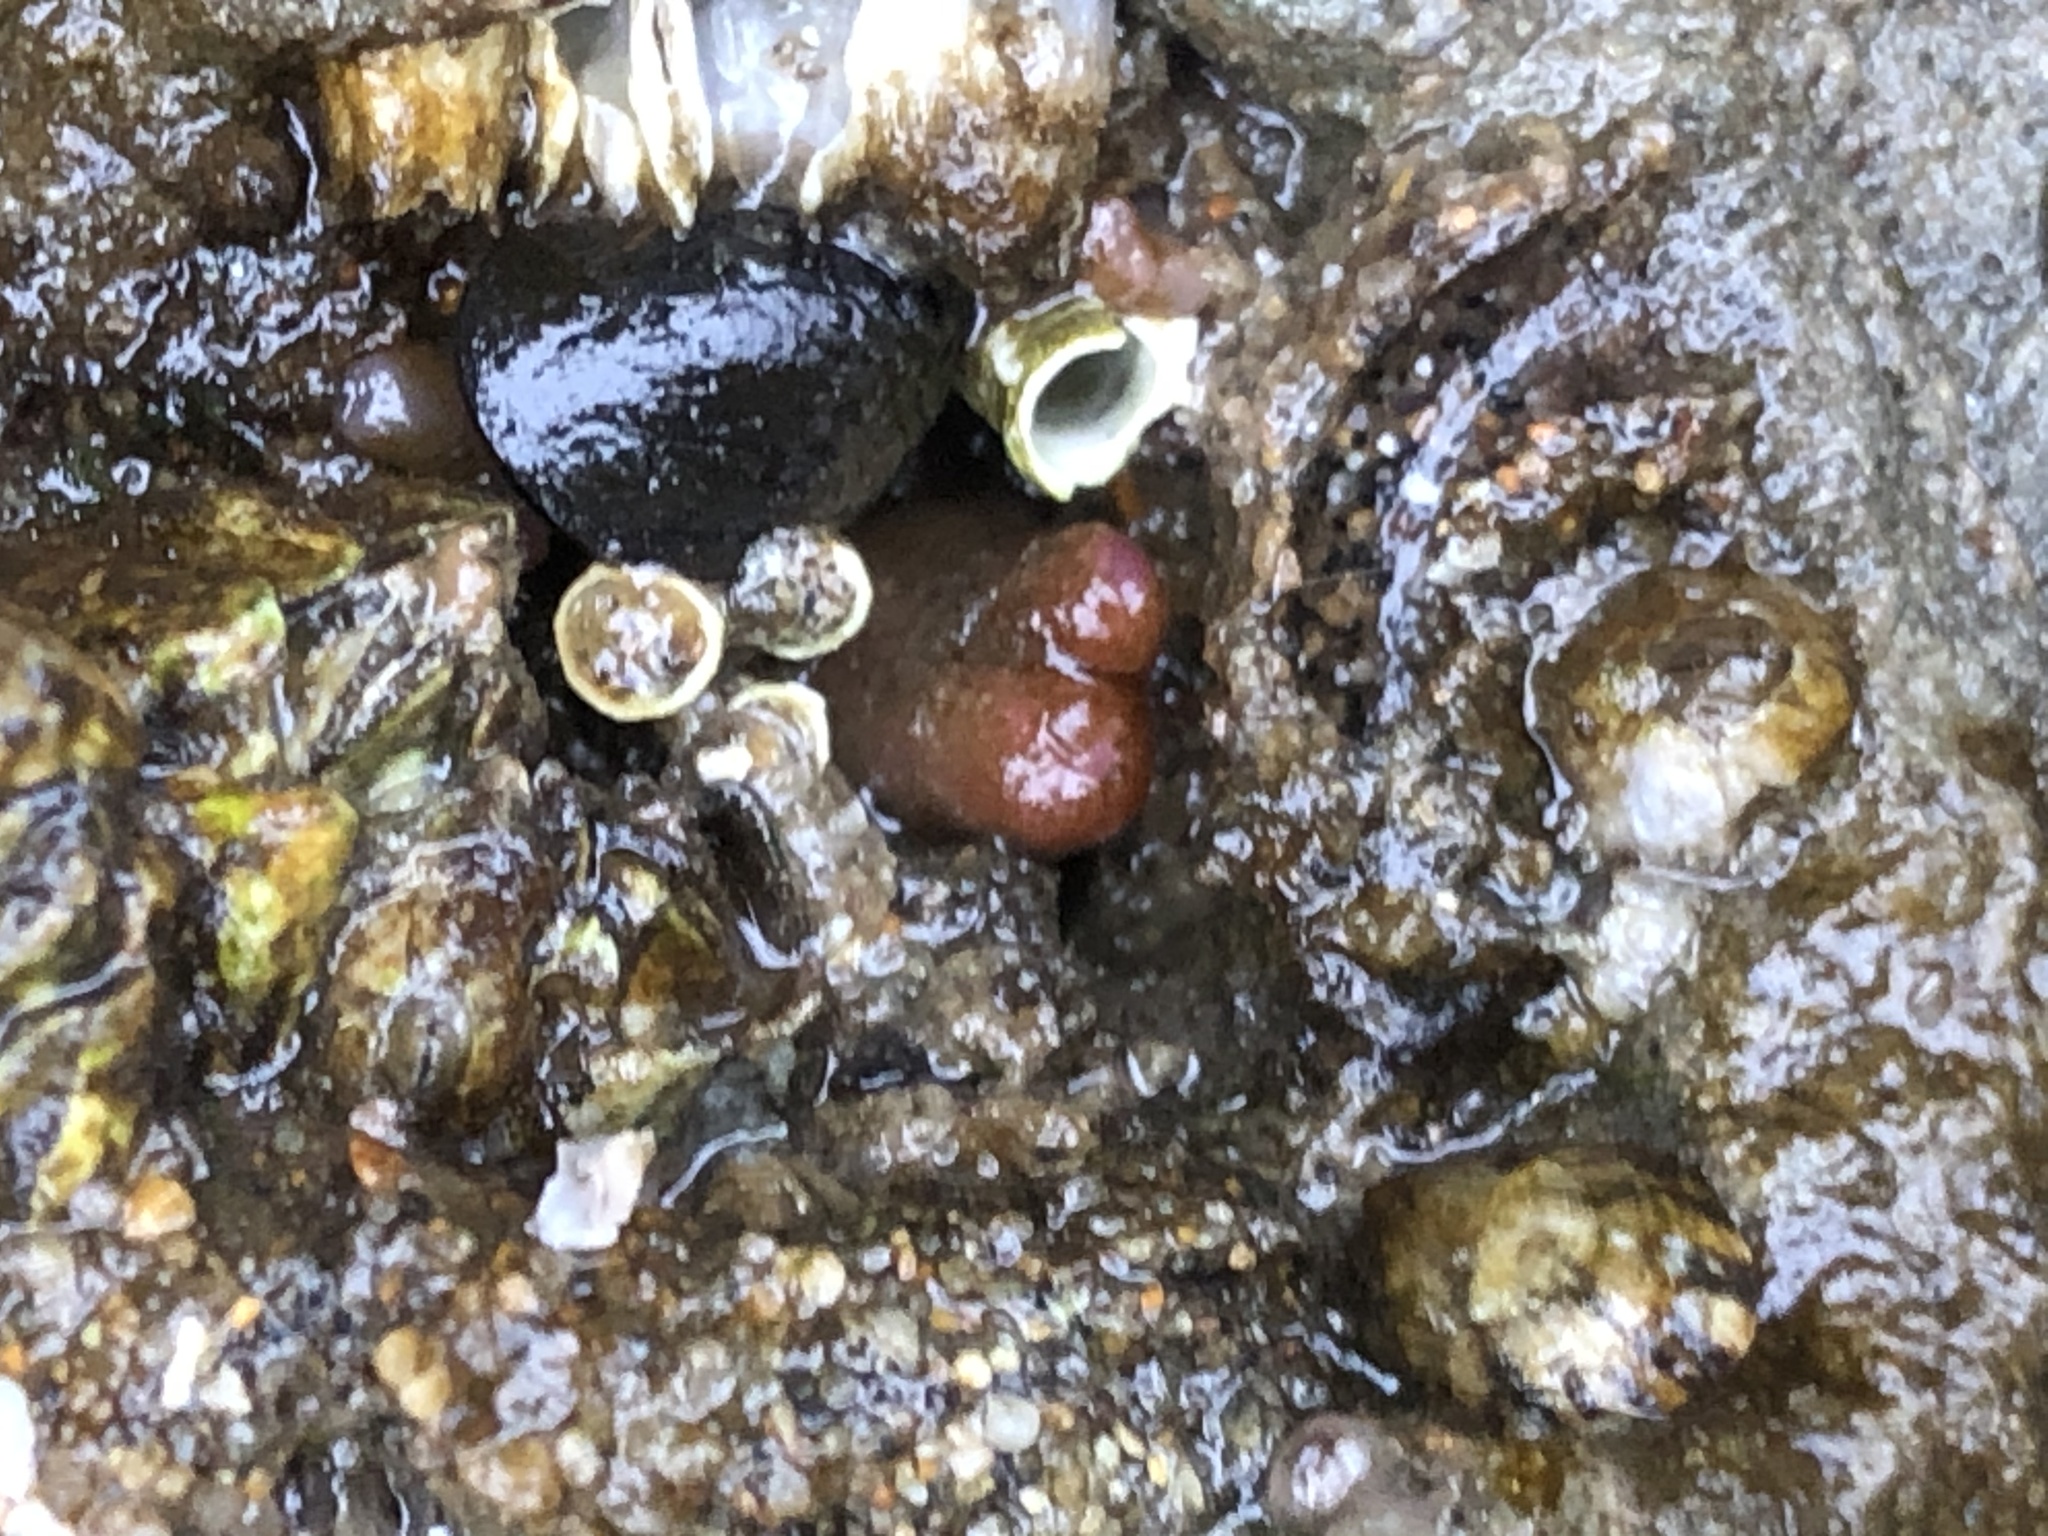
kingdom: Animalia
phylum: Mollusca
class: Bivalvia
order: Adapedonta
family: Hiatellidae
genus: Hiatella
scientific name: Hiatella arctica
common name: Arctic hiatella
